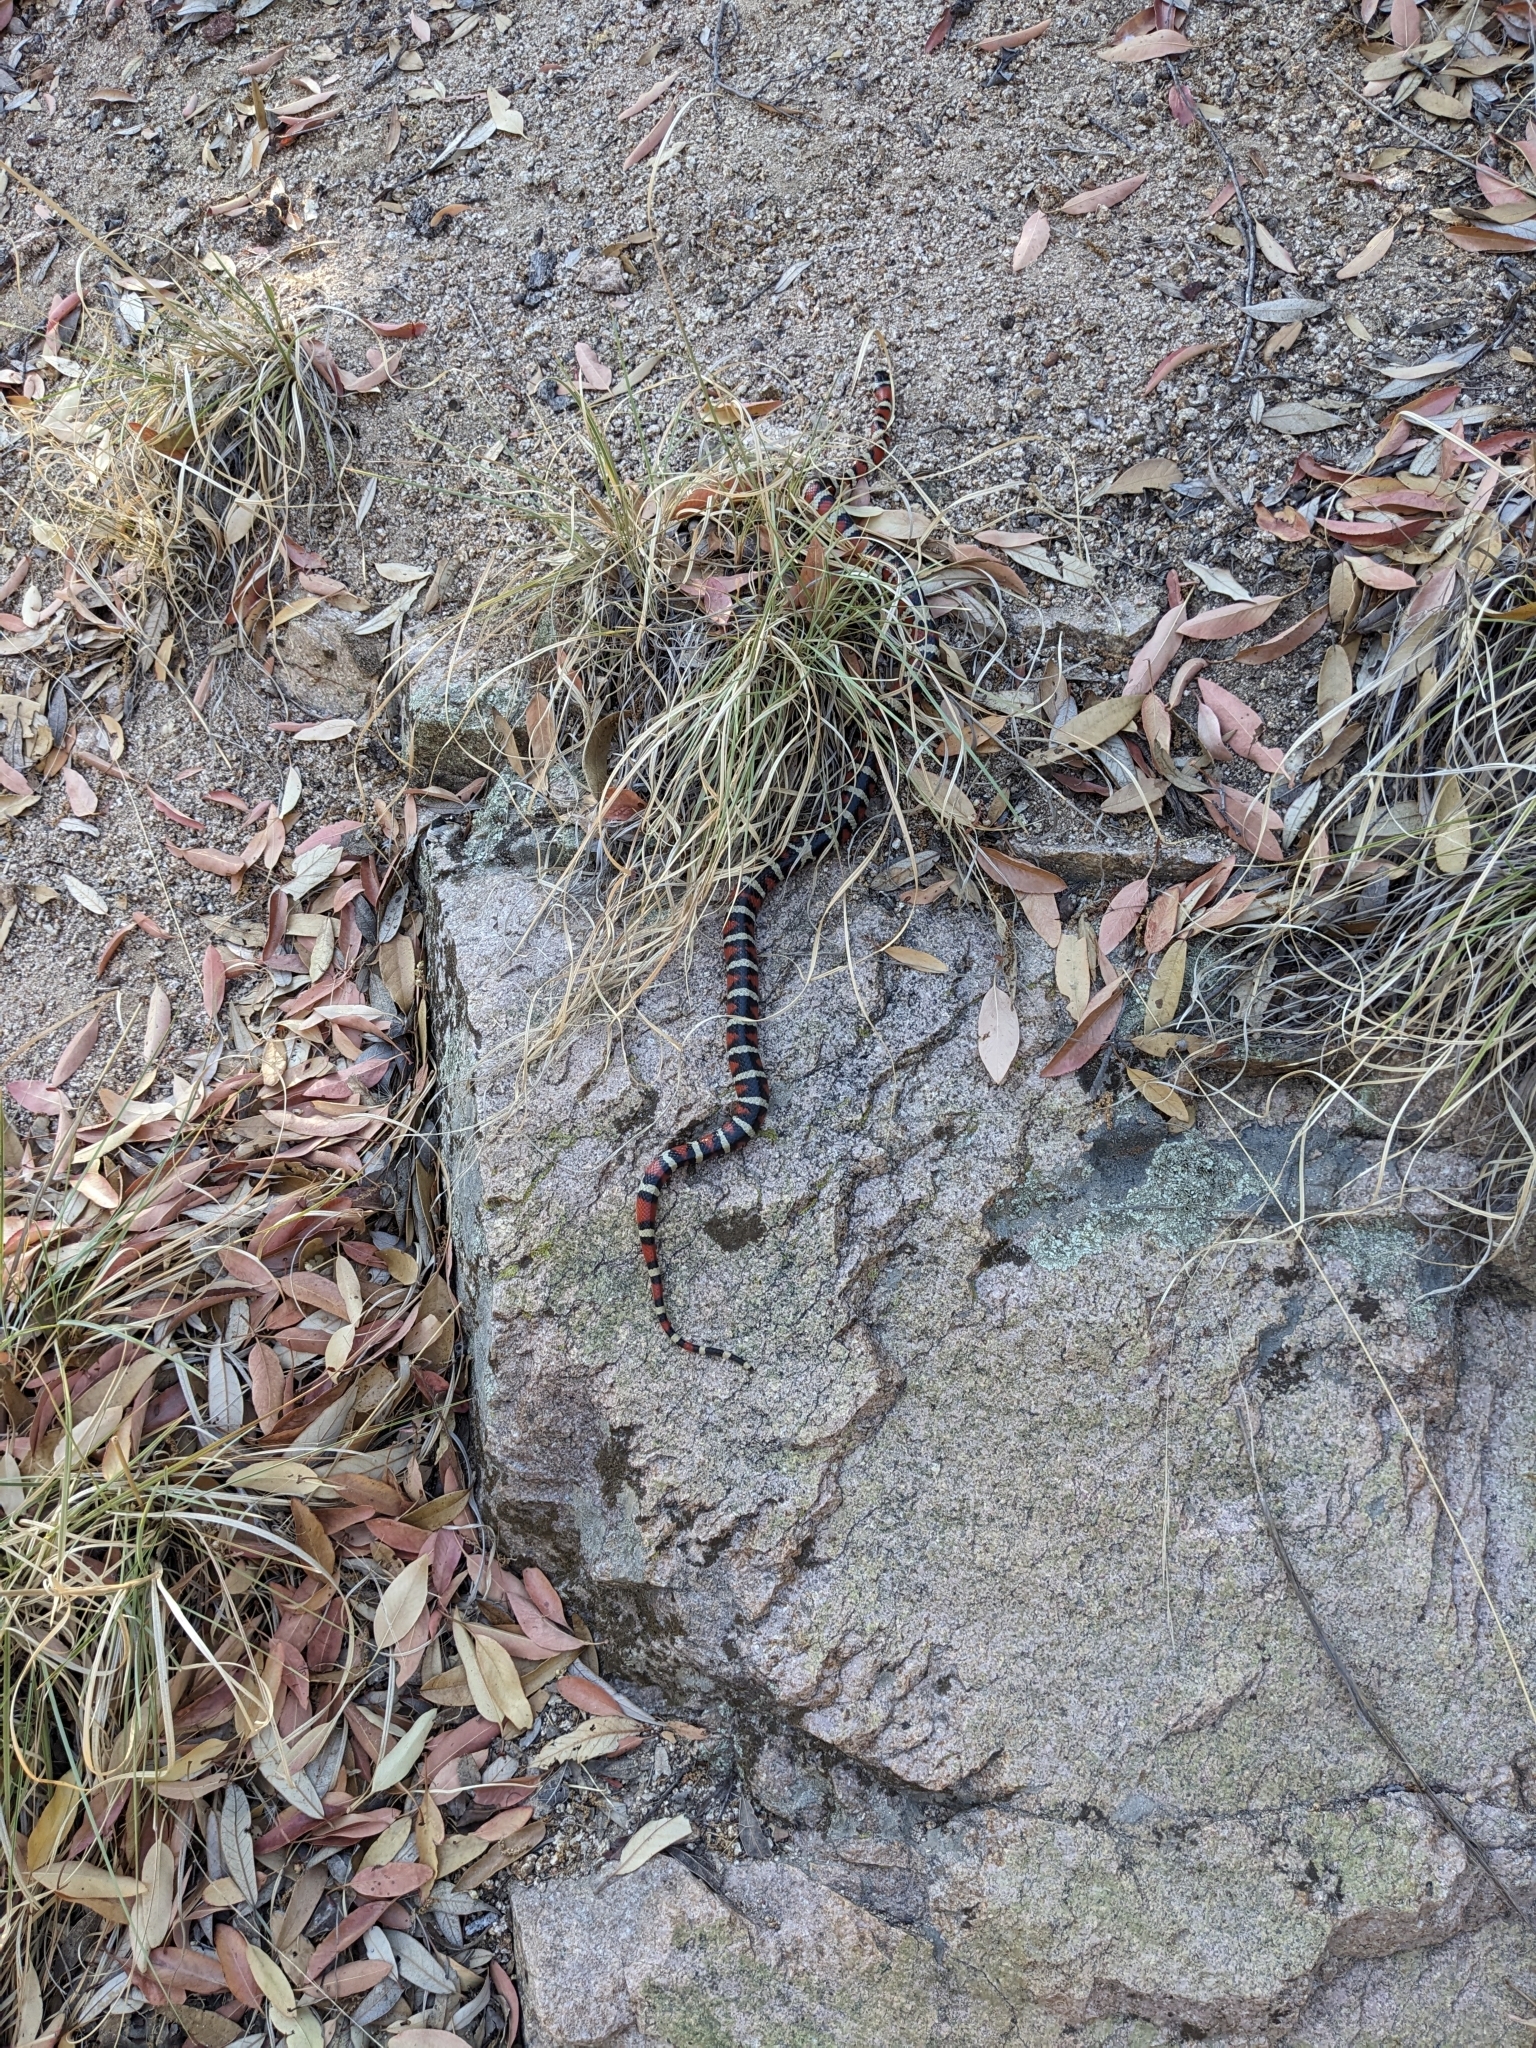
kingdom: Animalia
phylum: Chordata
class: Squamata
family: Colubridae
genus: Lampropeltis
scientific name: Lampropeltis knoblochi
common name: Chihuahuan mountain kingsnake
